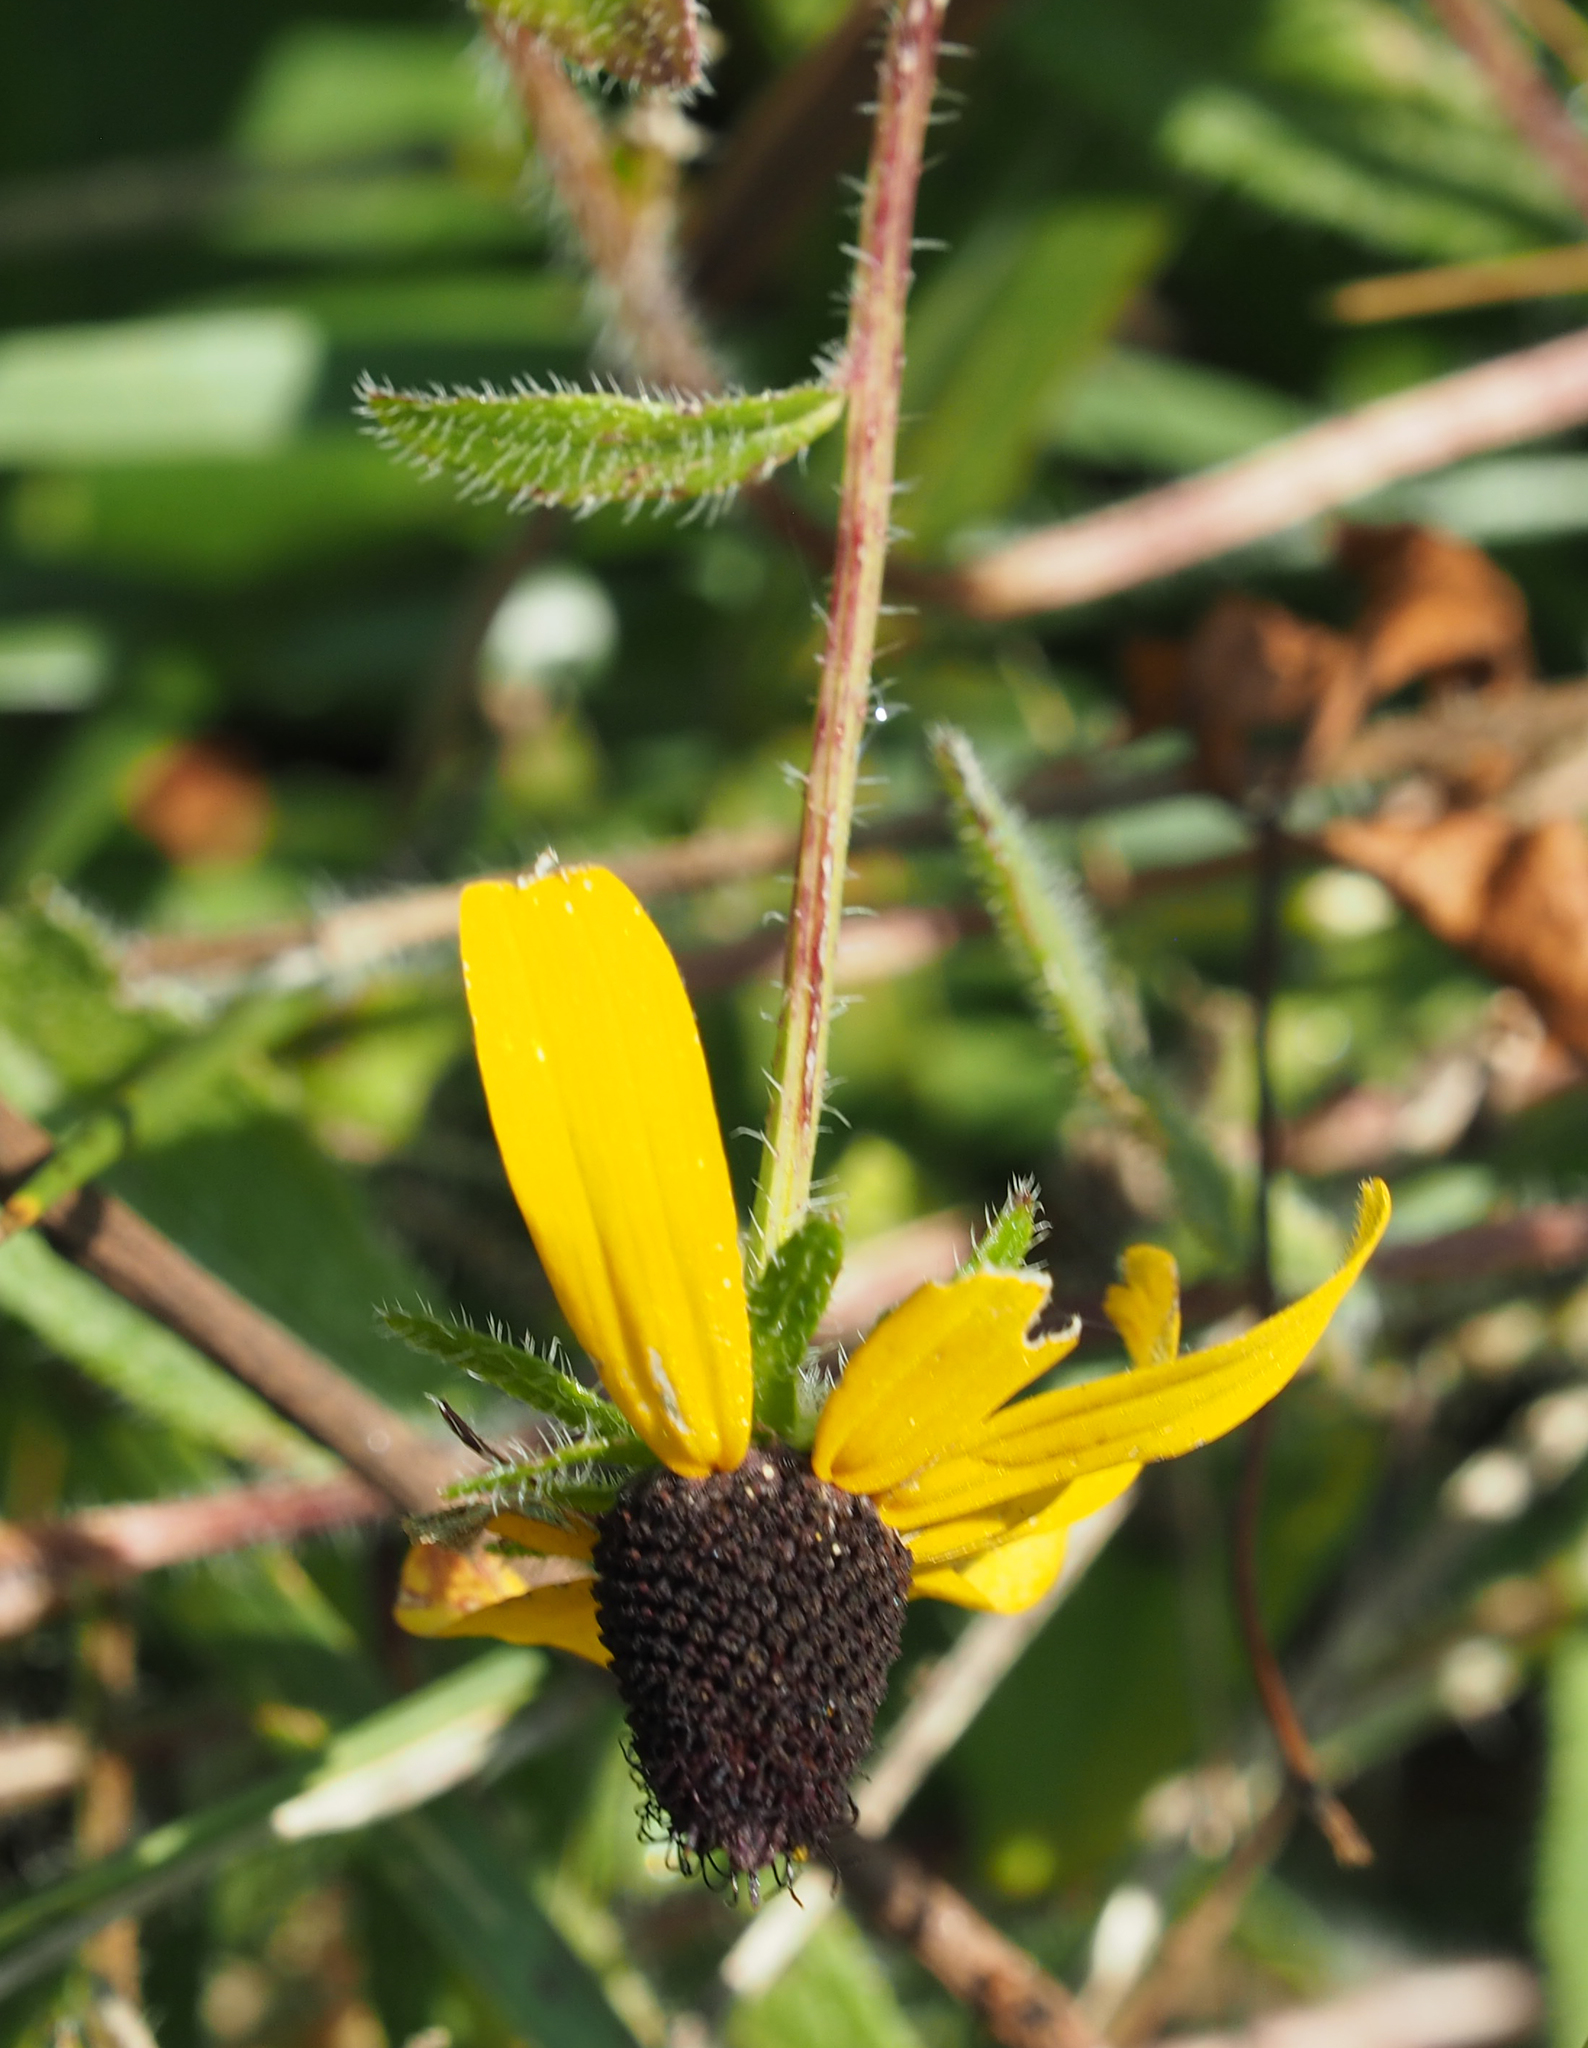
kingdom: Plantae
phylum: Tracheophyta
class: Magnoliopsida
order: Asterales
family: Asteraceae
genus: Rudbeckia
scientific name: Rudbeckia hirta
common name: Black-eyed-susan
